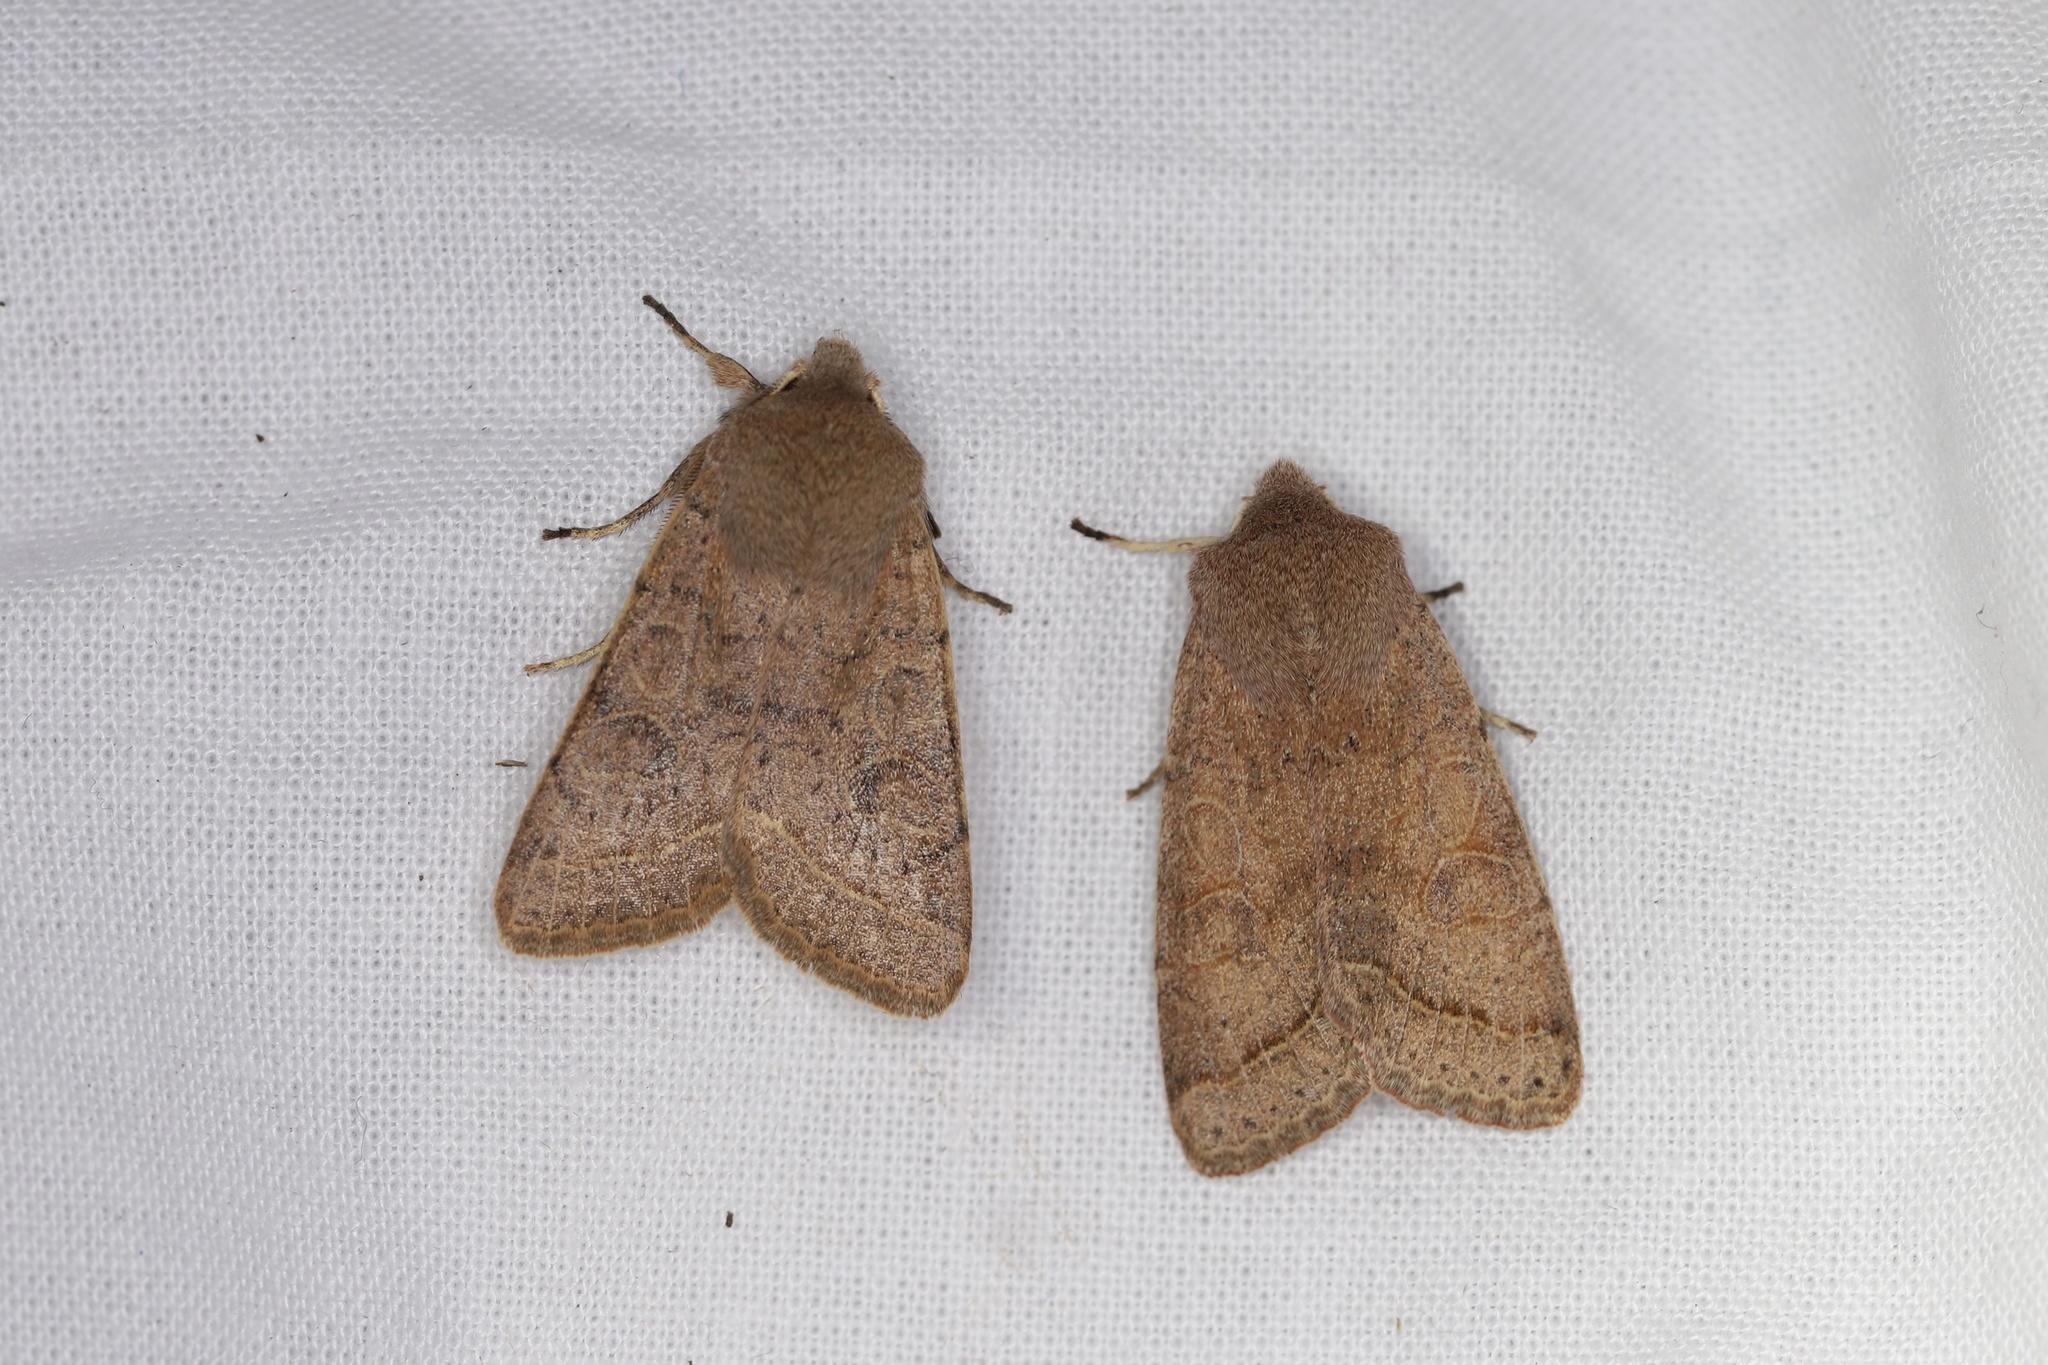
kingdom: Animalia
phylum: Arthropoda
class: Insecta
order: Lepidoptera
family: Noctuidae
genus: Orthosia
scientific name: Orthosia cerasi
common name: Common quaker
